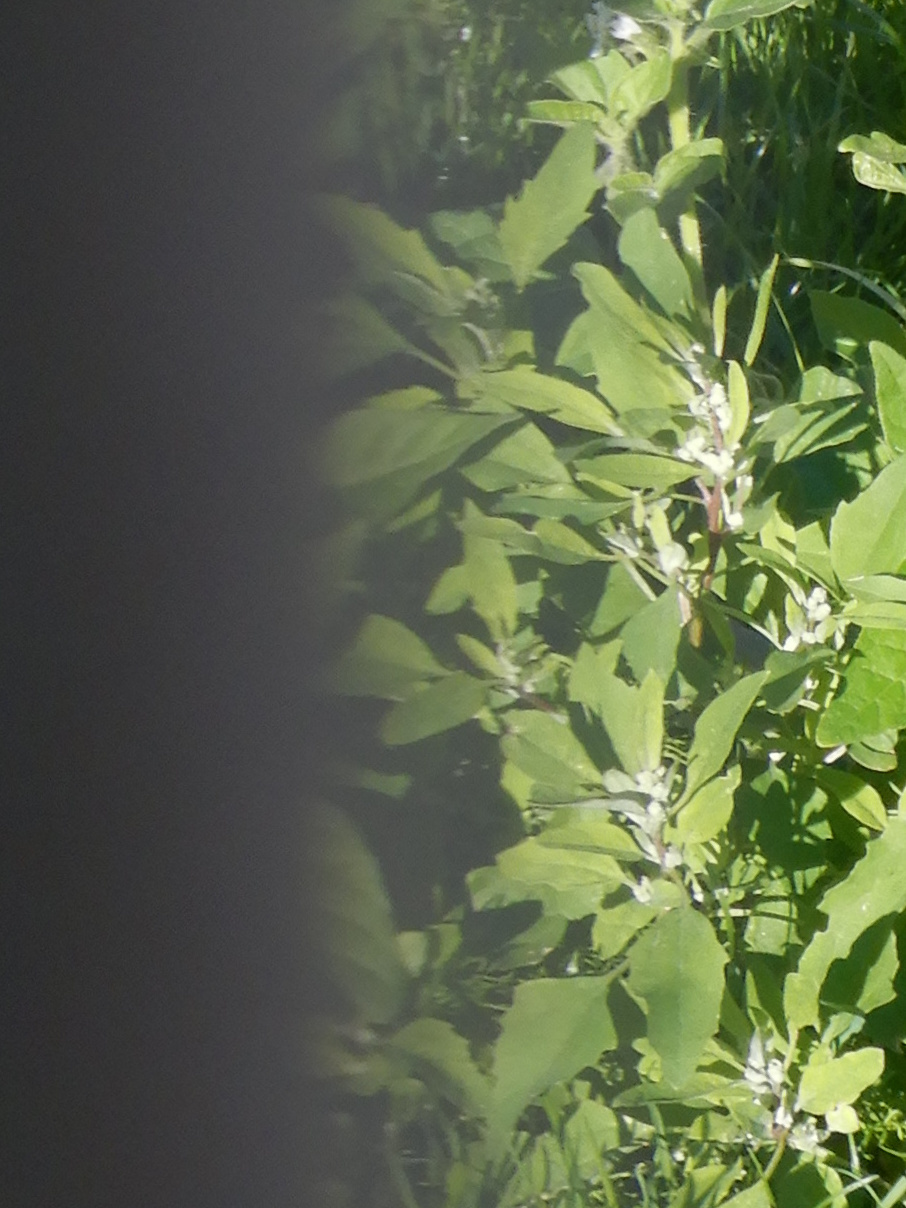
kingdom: Plantae
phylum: Tracheophyta
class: Magnoliopsida
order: Caryophyllales
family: Amaranthaceae
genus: Chenopodium
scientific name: Chenopodium album
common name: Fat-hen
